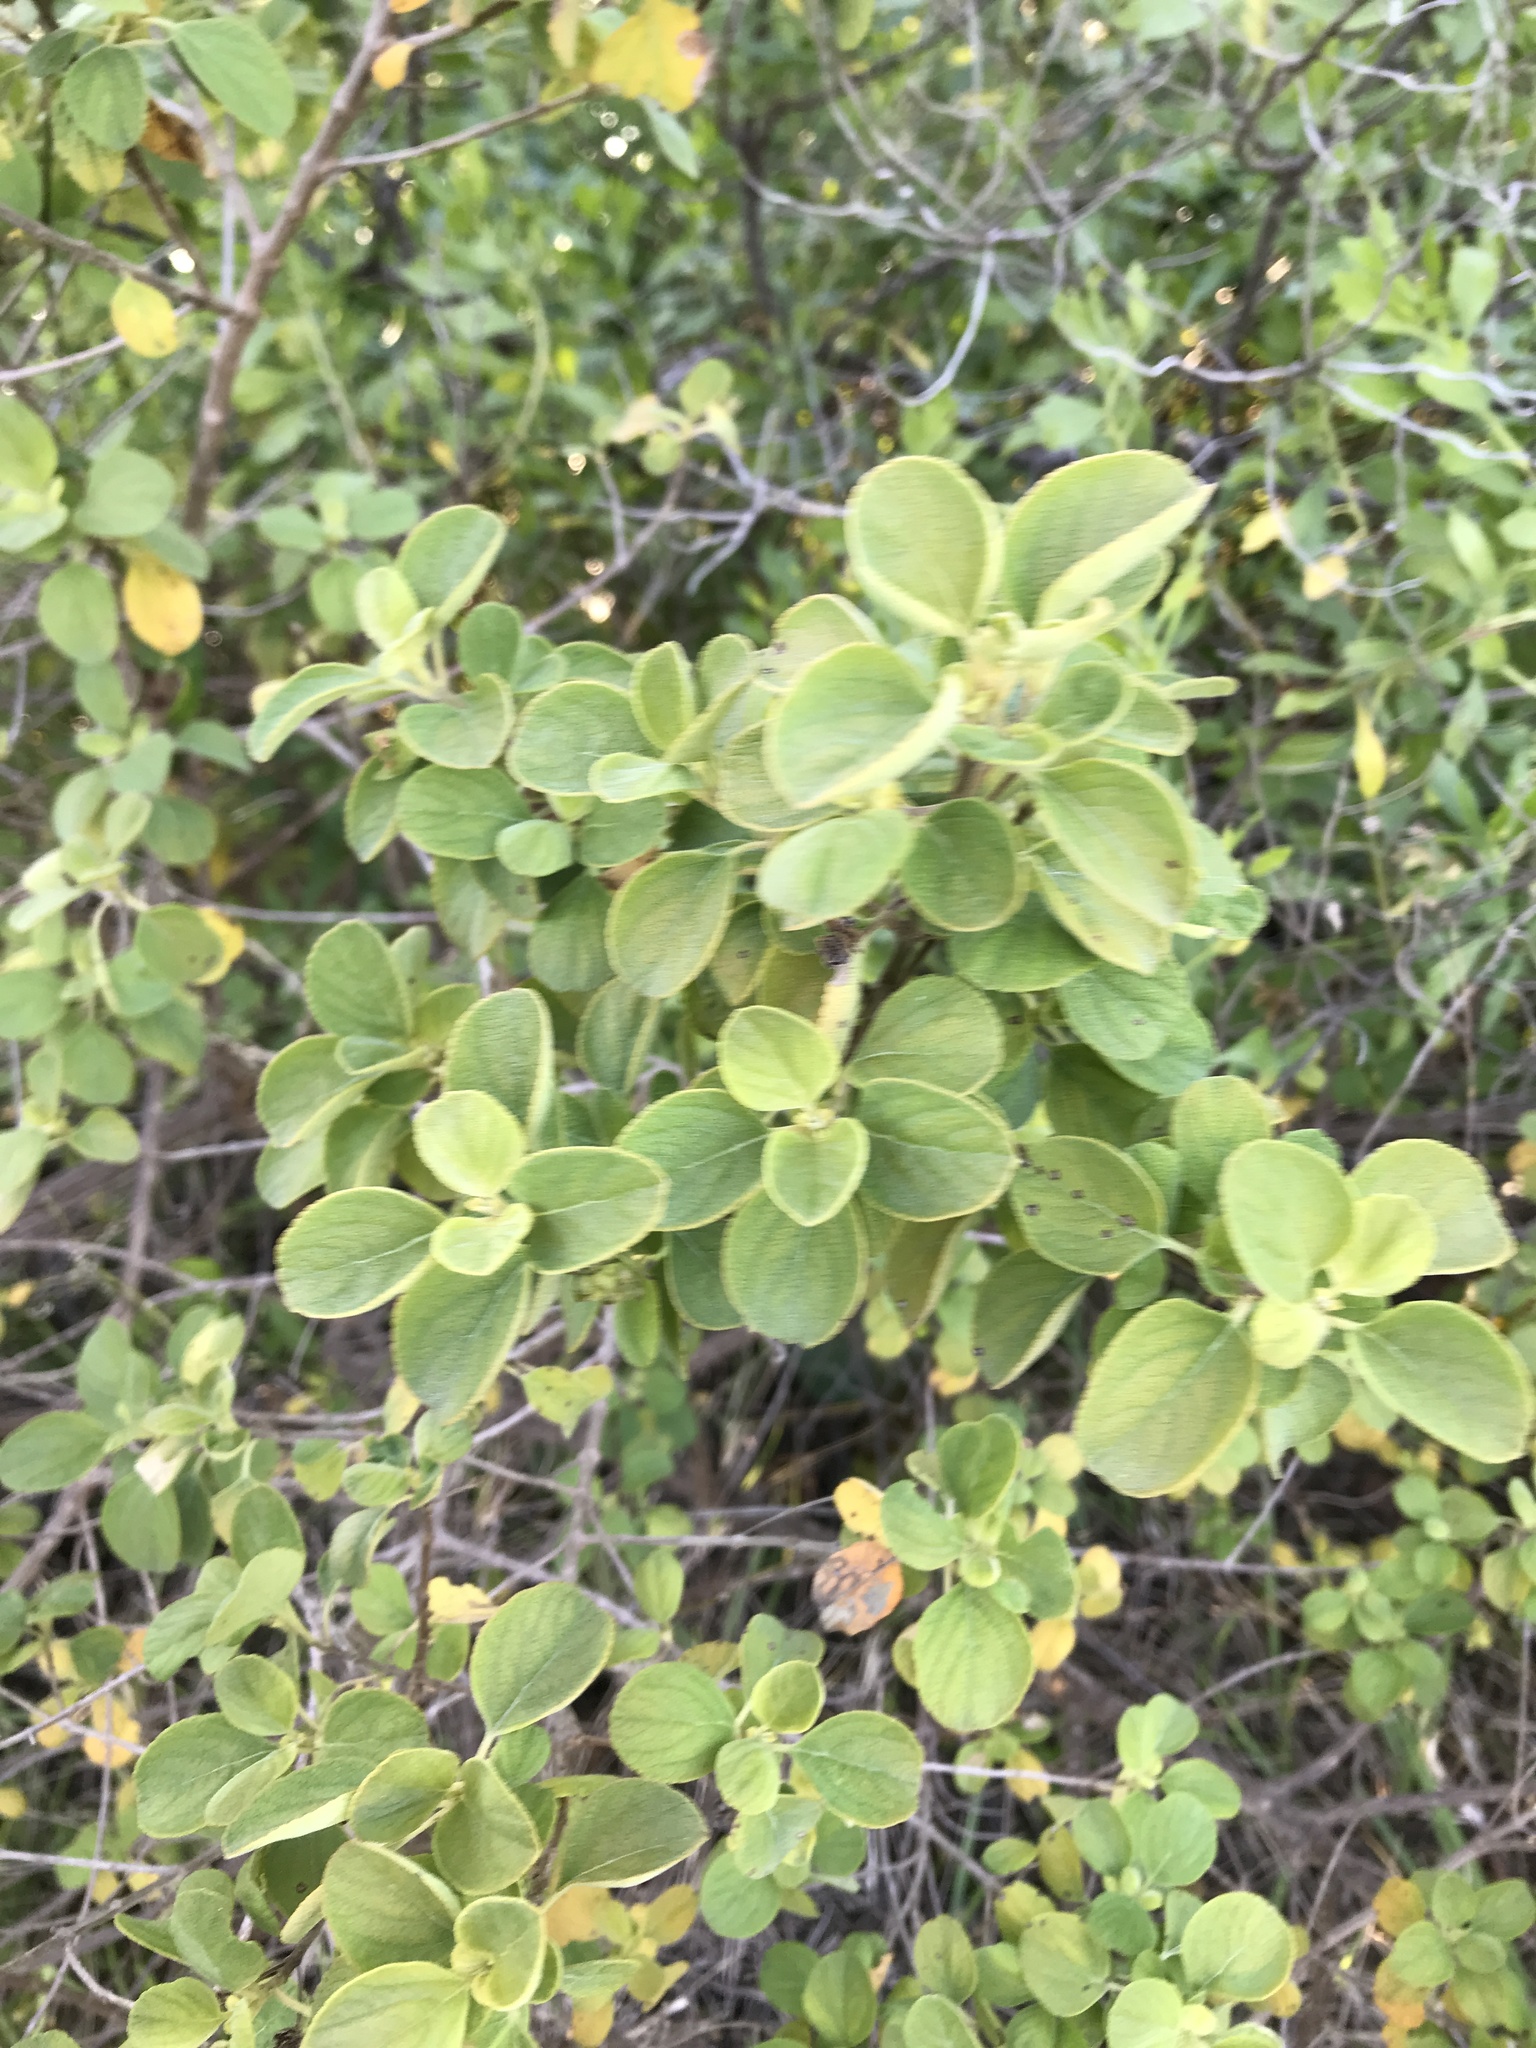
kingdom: Plantae
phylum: Tracheophyta
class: Magnoliopsida
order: Lamiales
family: Verbenaceae
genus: Lantana
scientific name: Lantana involucrata
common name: Black sage
